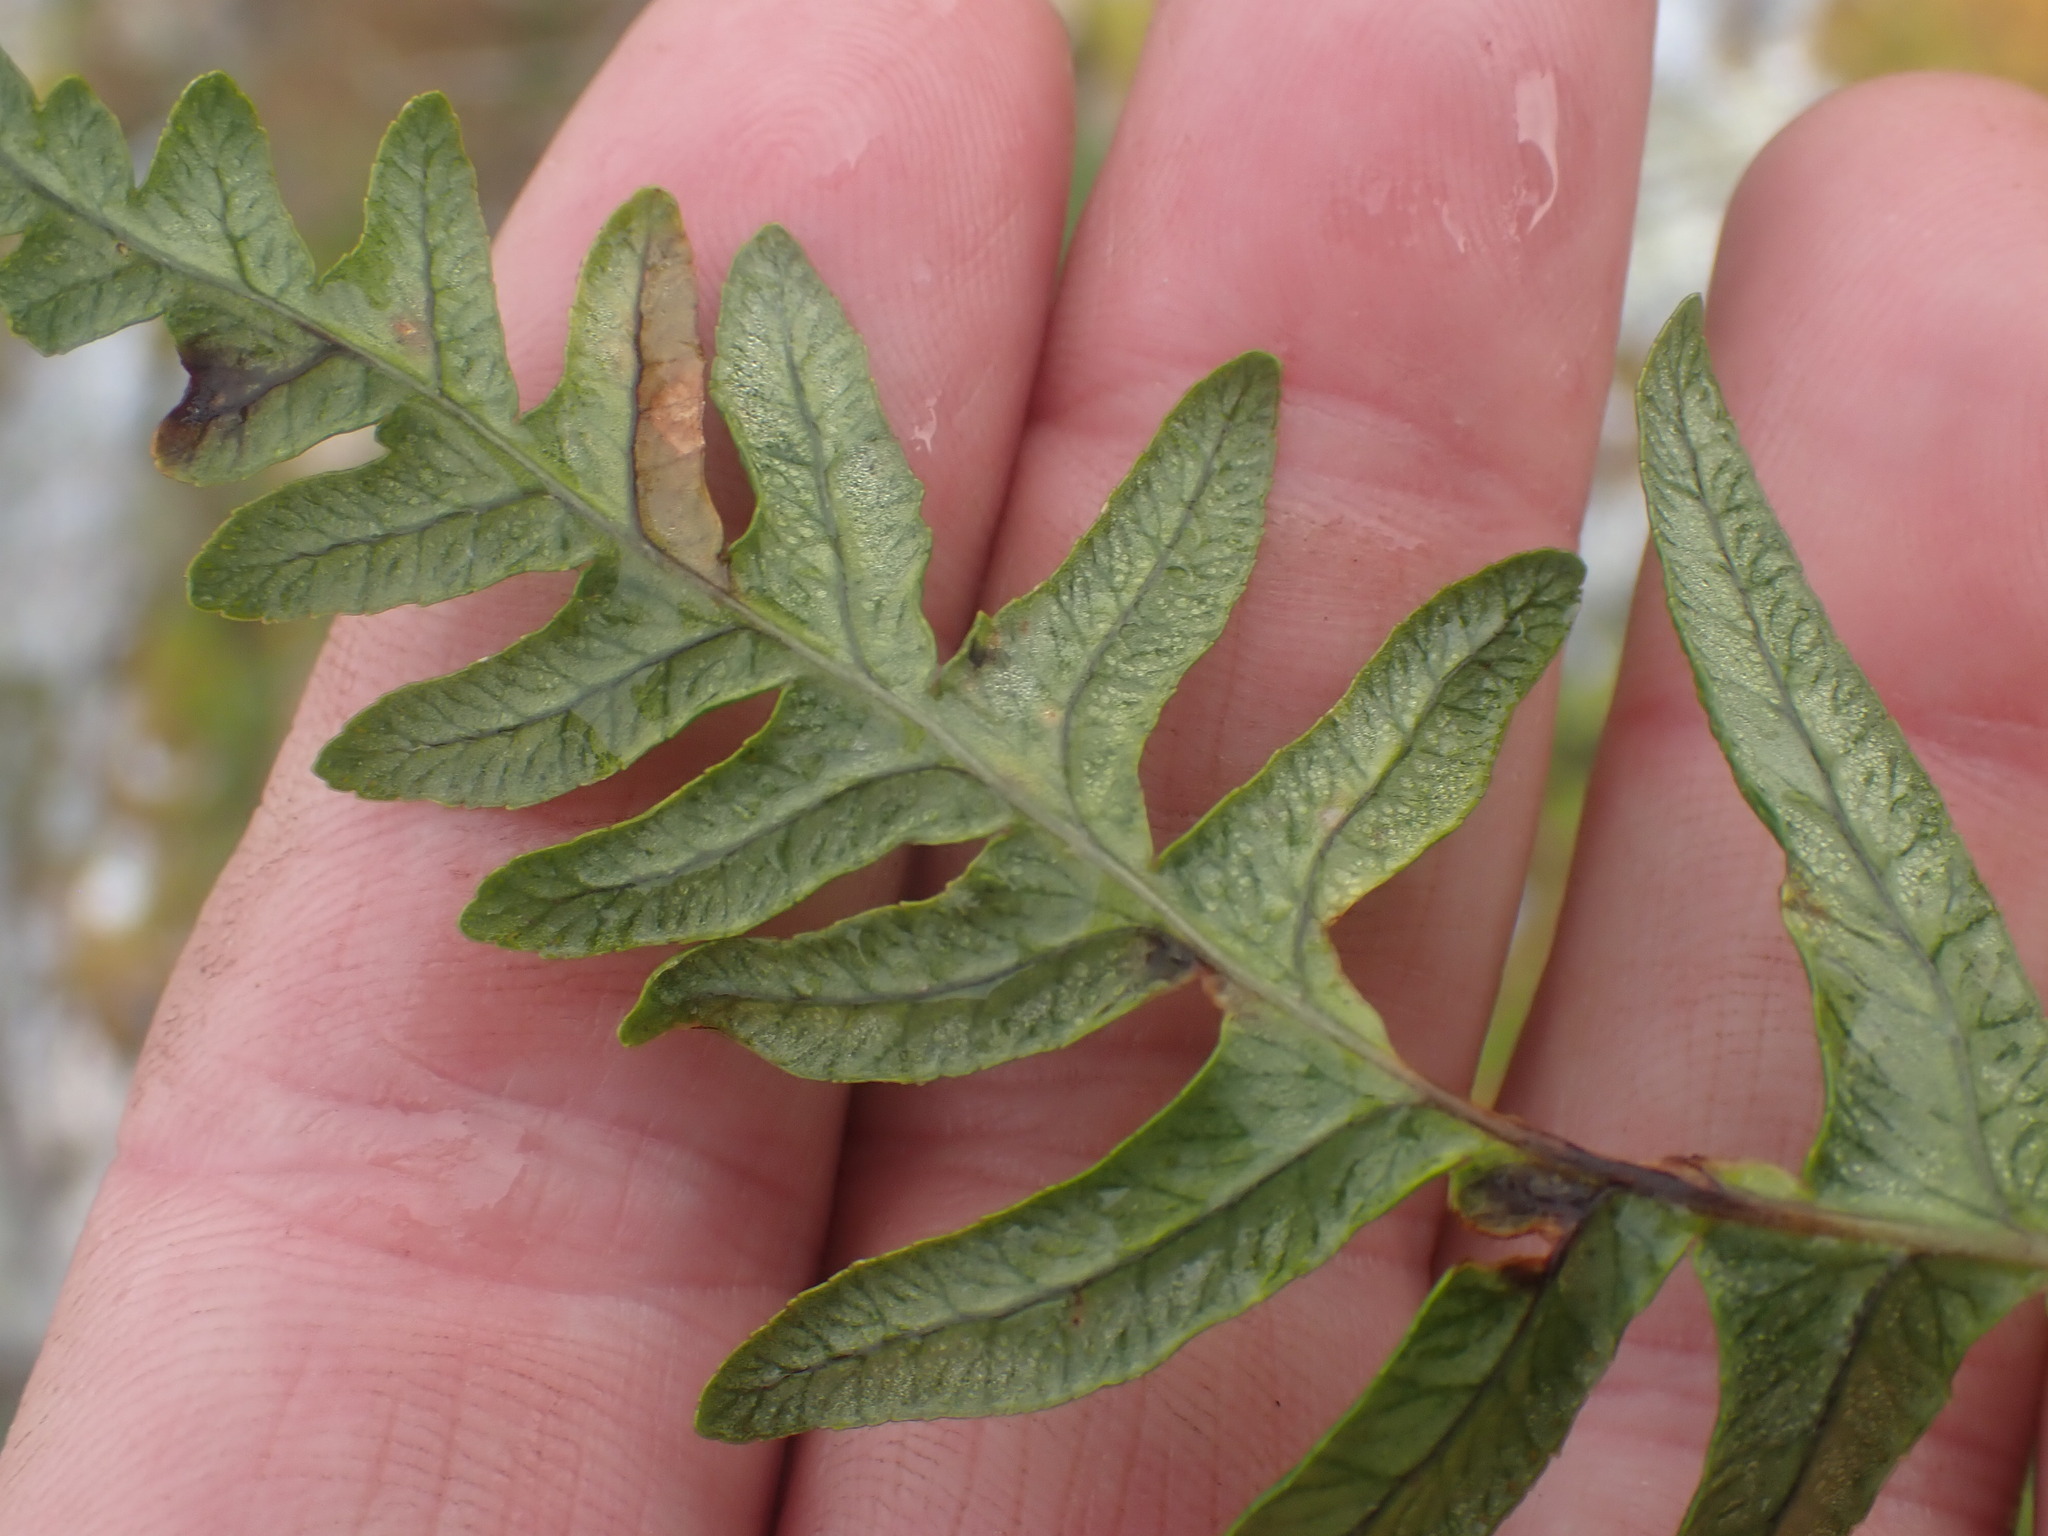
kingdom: Plantae
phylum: Tracheophyta
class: Polypodiopsida
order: Polypodiales
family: Polypodiaceae
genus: Polypodium
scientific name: Polypodium glycyrrhiza
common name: Licorice fern
